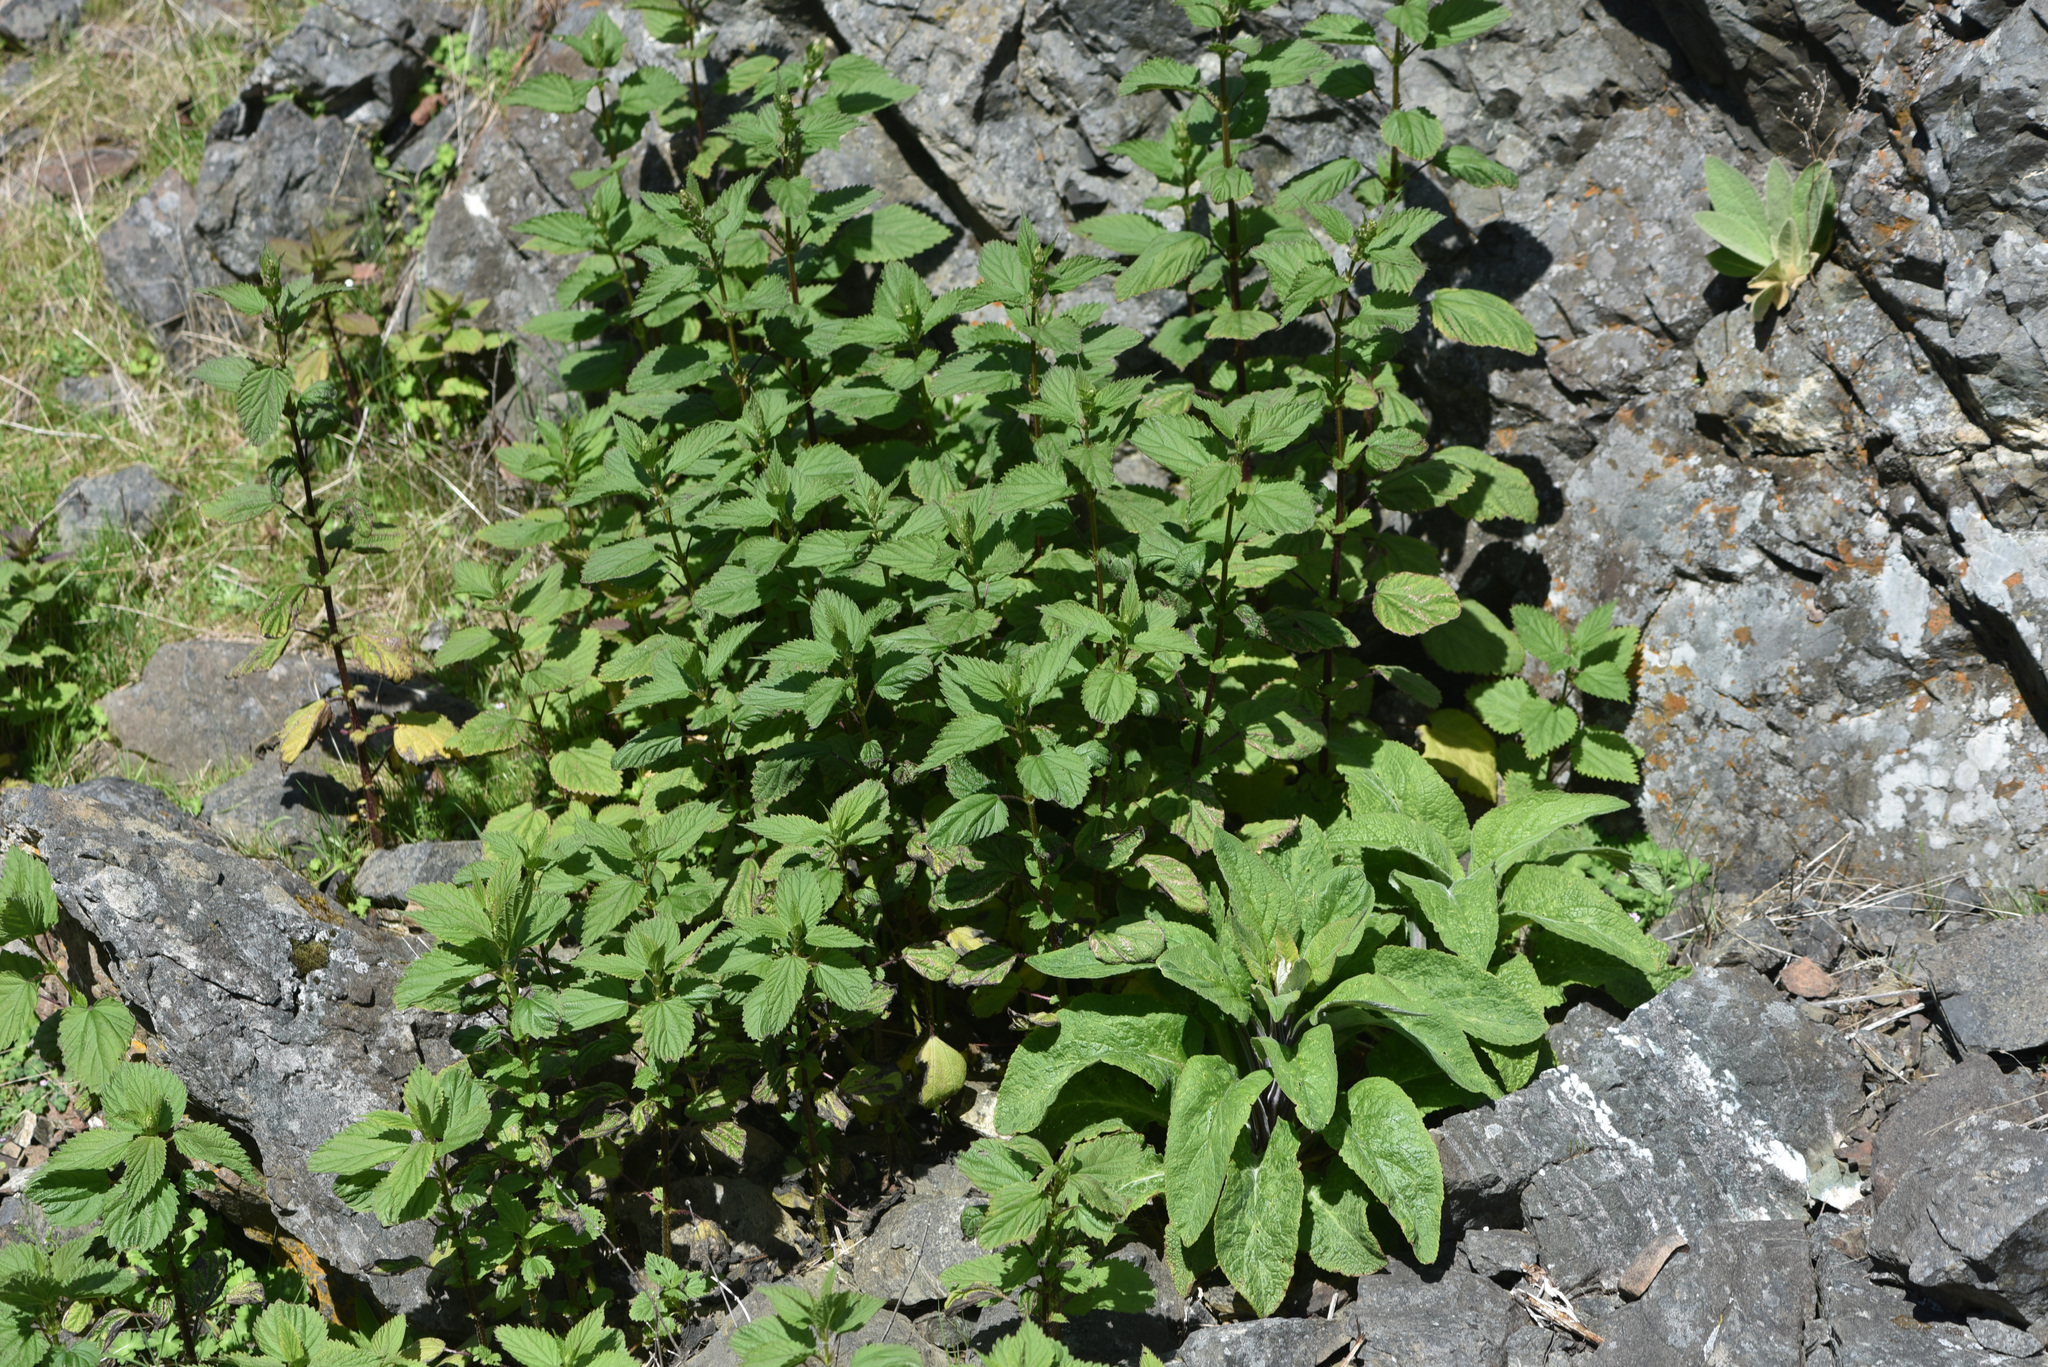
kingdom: Plantae
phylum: Tracheophyta
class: Magnoliopsida
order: Lamiales
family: Plantaginaceae
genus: Digitalis
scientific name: Digitalis purpurea
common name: Foxglove
